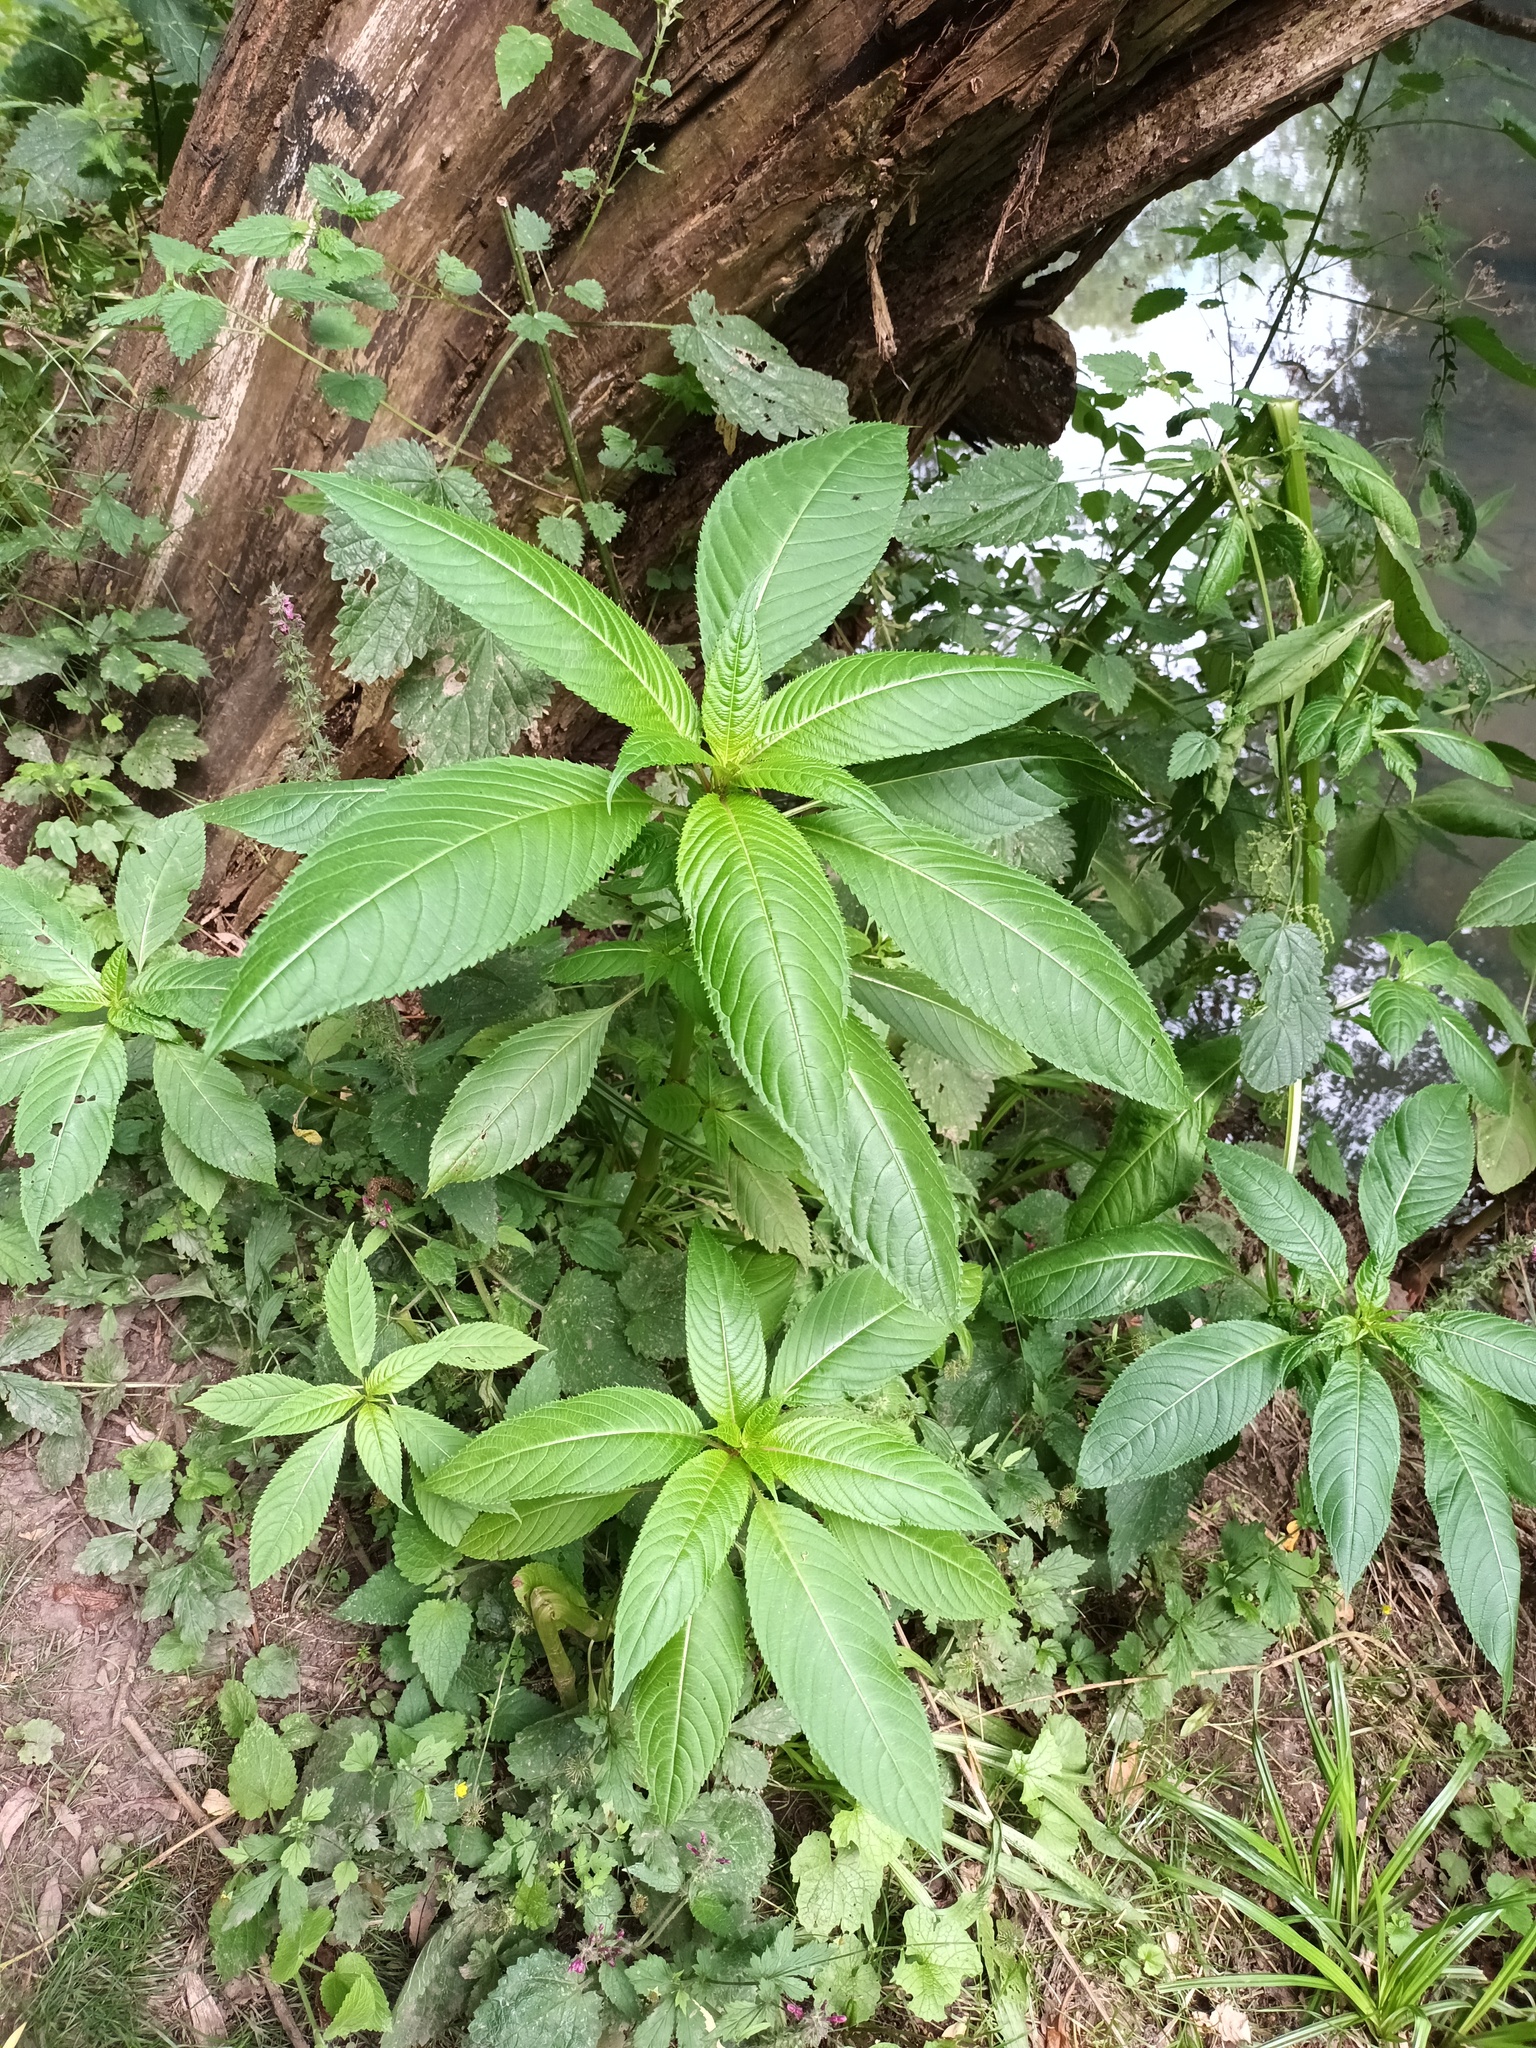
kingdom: Plantae
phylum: Tracheophyta
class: Magnoliopsida
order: Ericales
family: Balsaminaceae
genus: Impatiens
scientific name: Impatiens glandulifera
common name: Himalayan balsam
